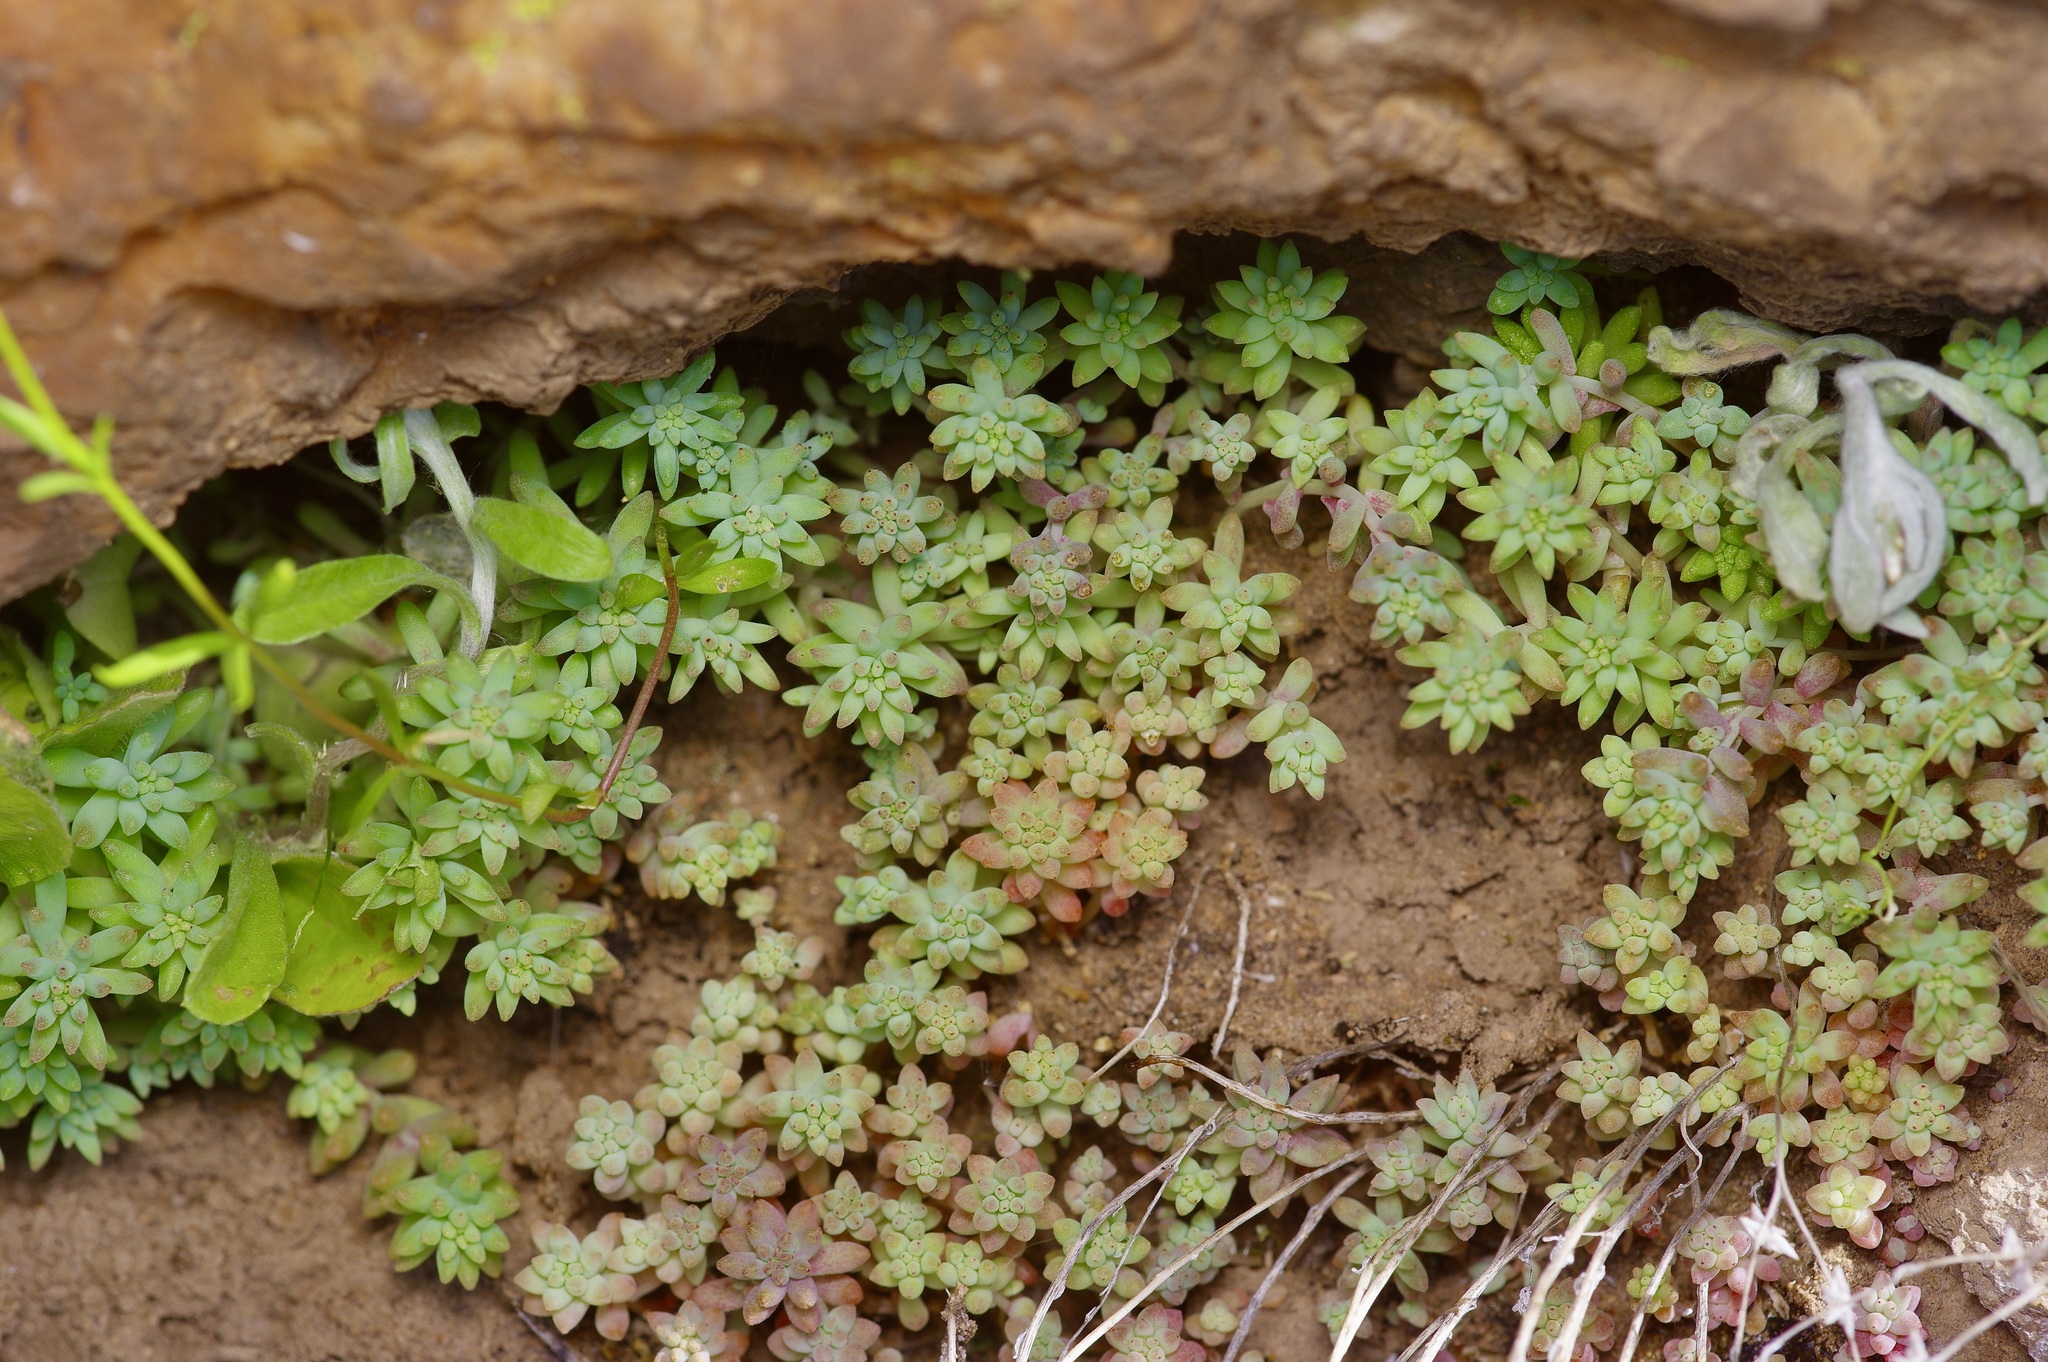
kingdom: Plantae
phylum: Tracheophyta
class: Magnoliopsida
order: Saxifragales
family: Crassulaceae
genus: Sedum
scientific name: Sedum nuttallii
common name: Yellow stonecrop
